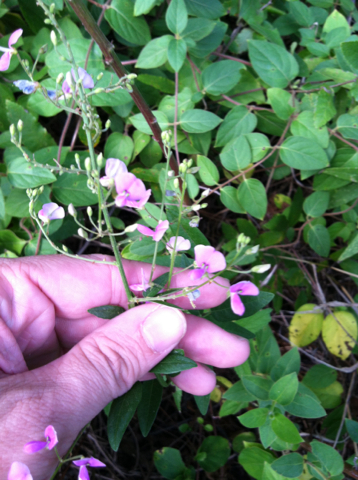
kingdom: Plantae
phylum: Tracheophyta
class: Magnoliopsida
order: Fabales
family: Fabaceae
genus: Desmodium
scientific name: Desmodium paniculatum
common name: Panicled tick-clover
